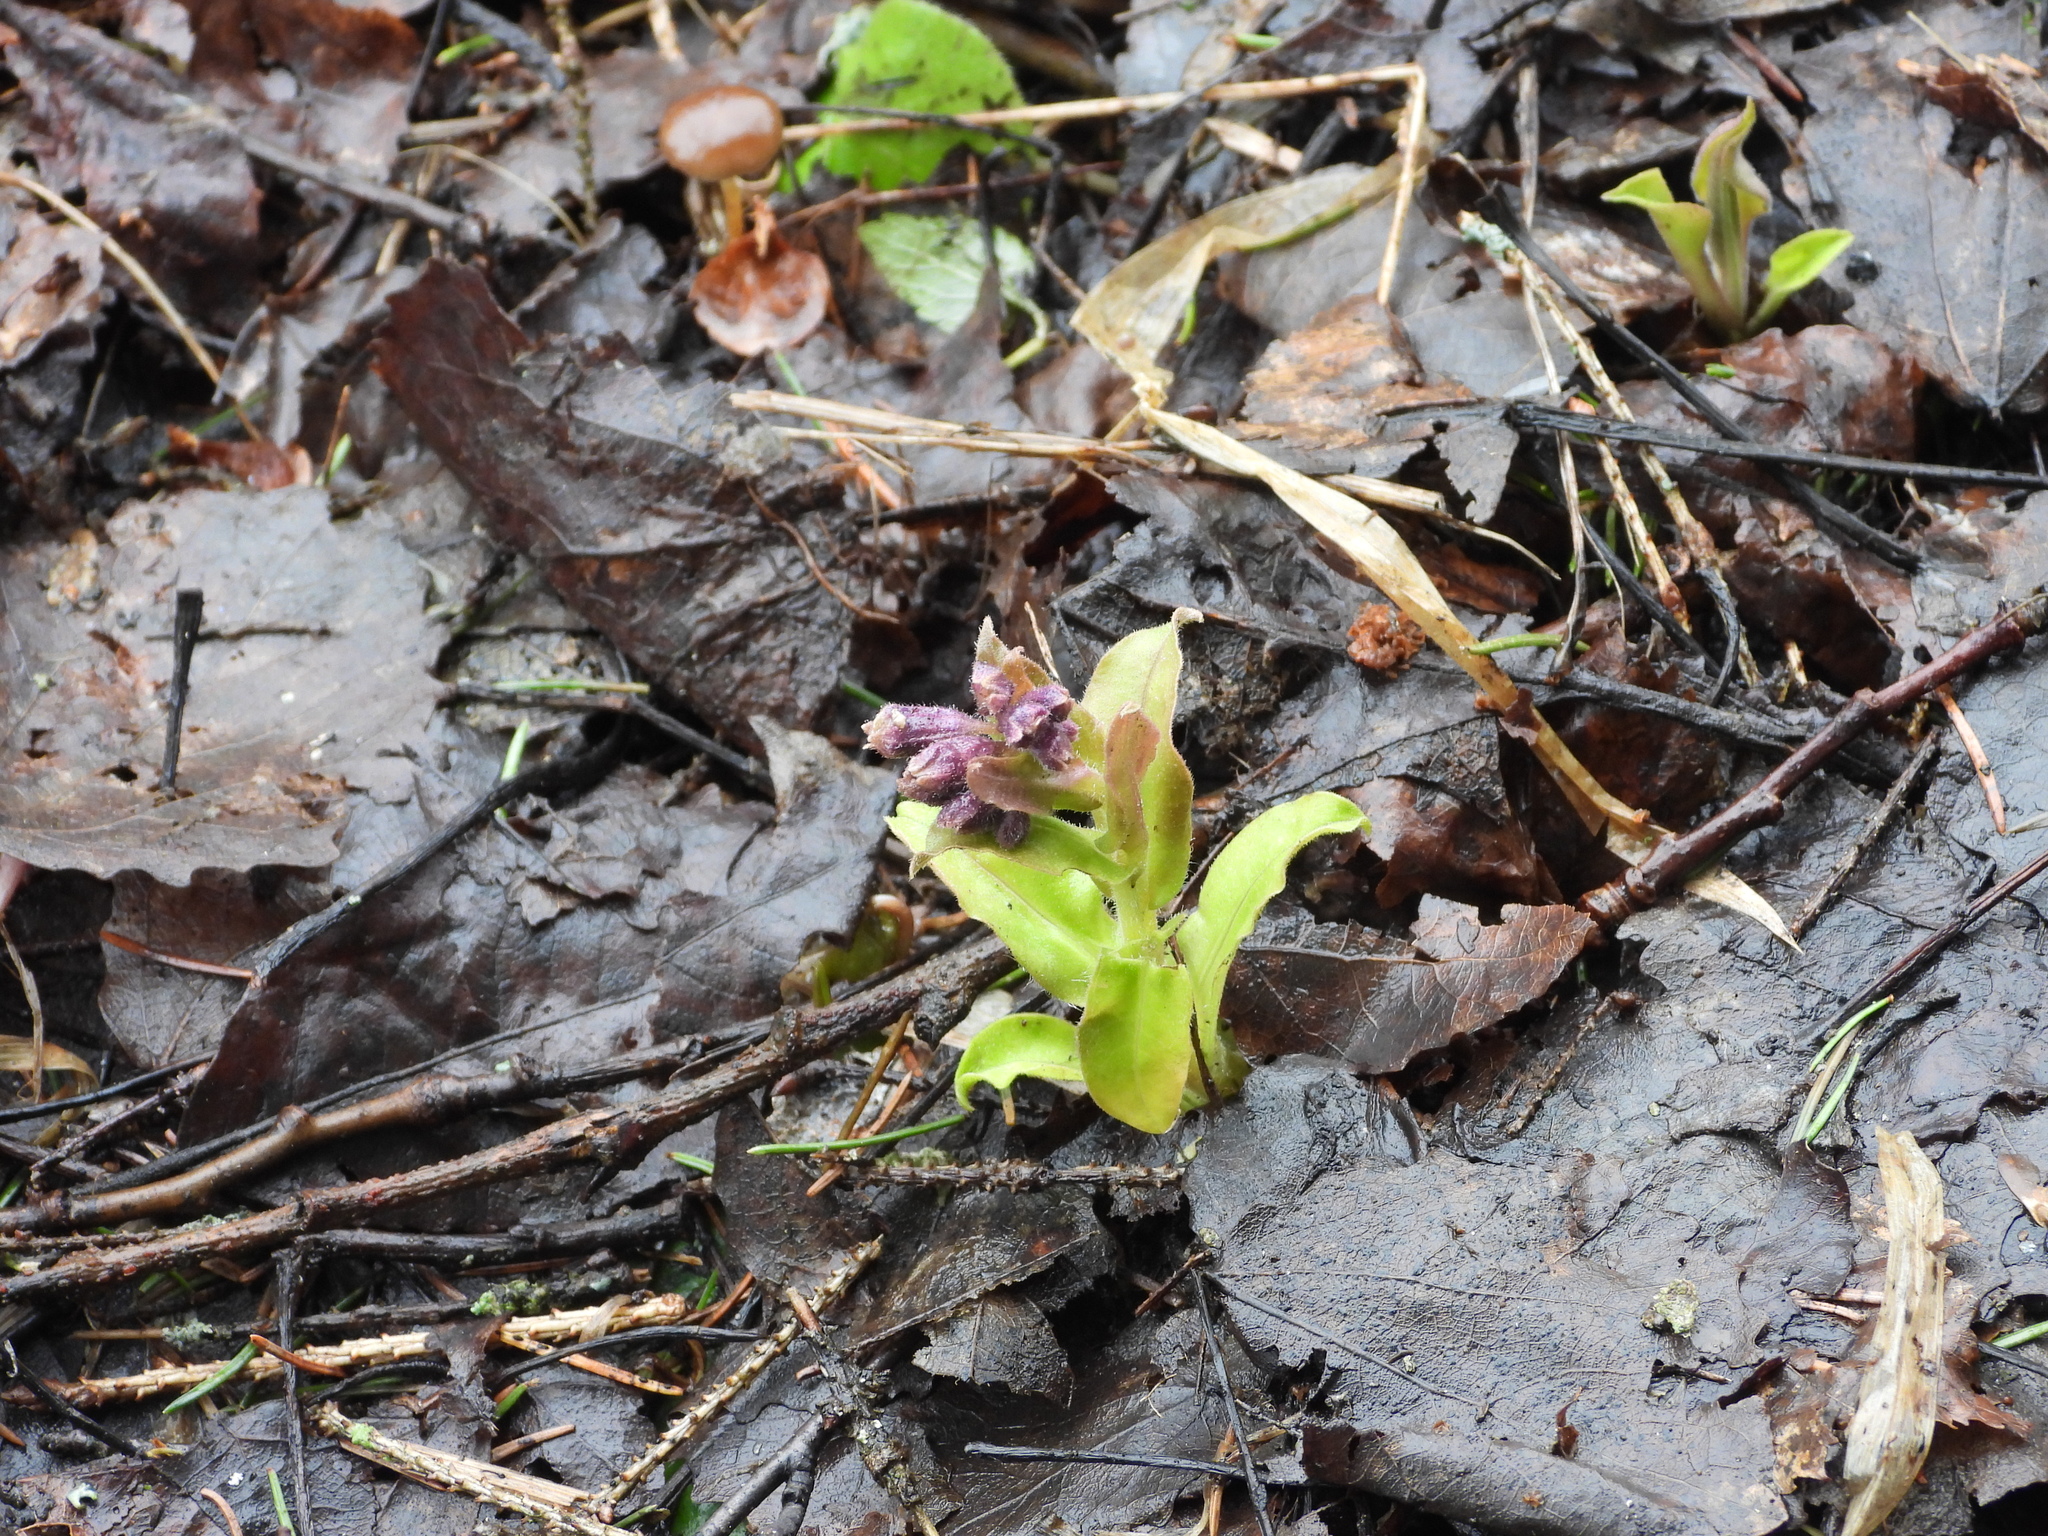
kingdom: Plantae
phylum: Tracheophyta
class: Magnoliopsida
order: Boraginales
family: Boraginaceae
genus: Pulmonaria
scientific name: Pulmonaria mollis
